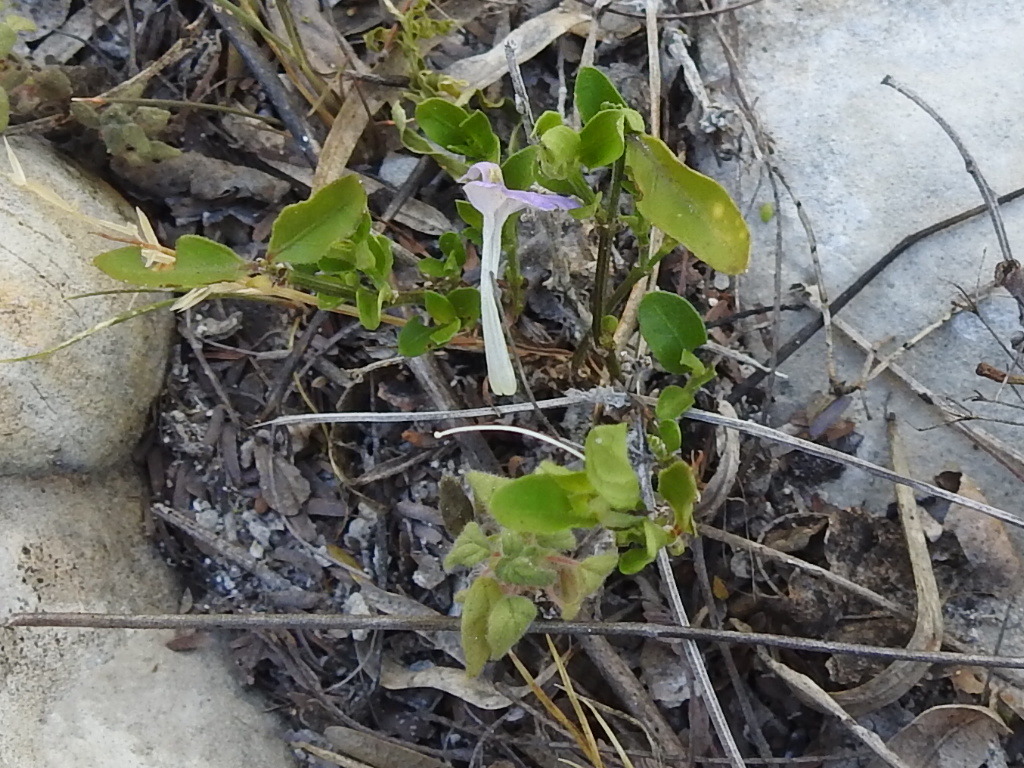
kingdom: Plantae
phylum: Tracheophyta
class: Magnoliopsida
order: Lamiales
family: Acanthaceae
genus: Justicia
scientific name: Justicia pilosella
